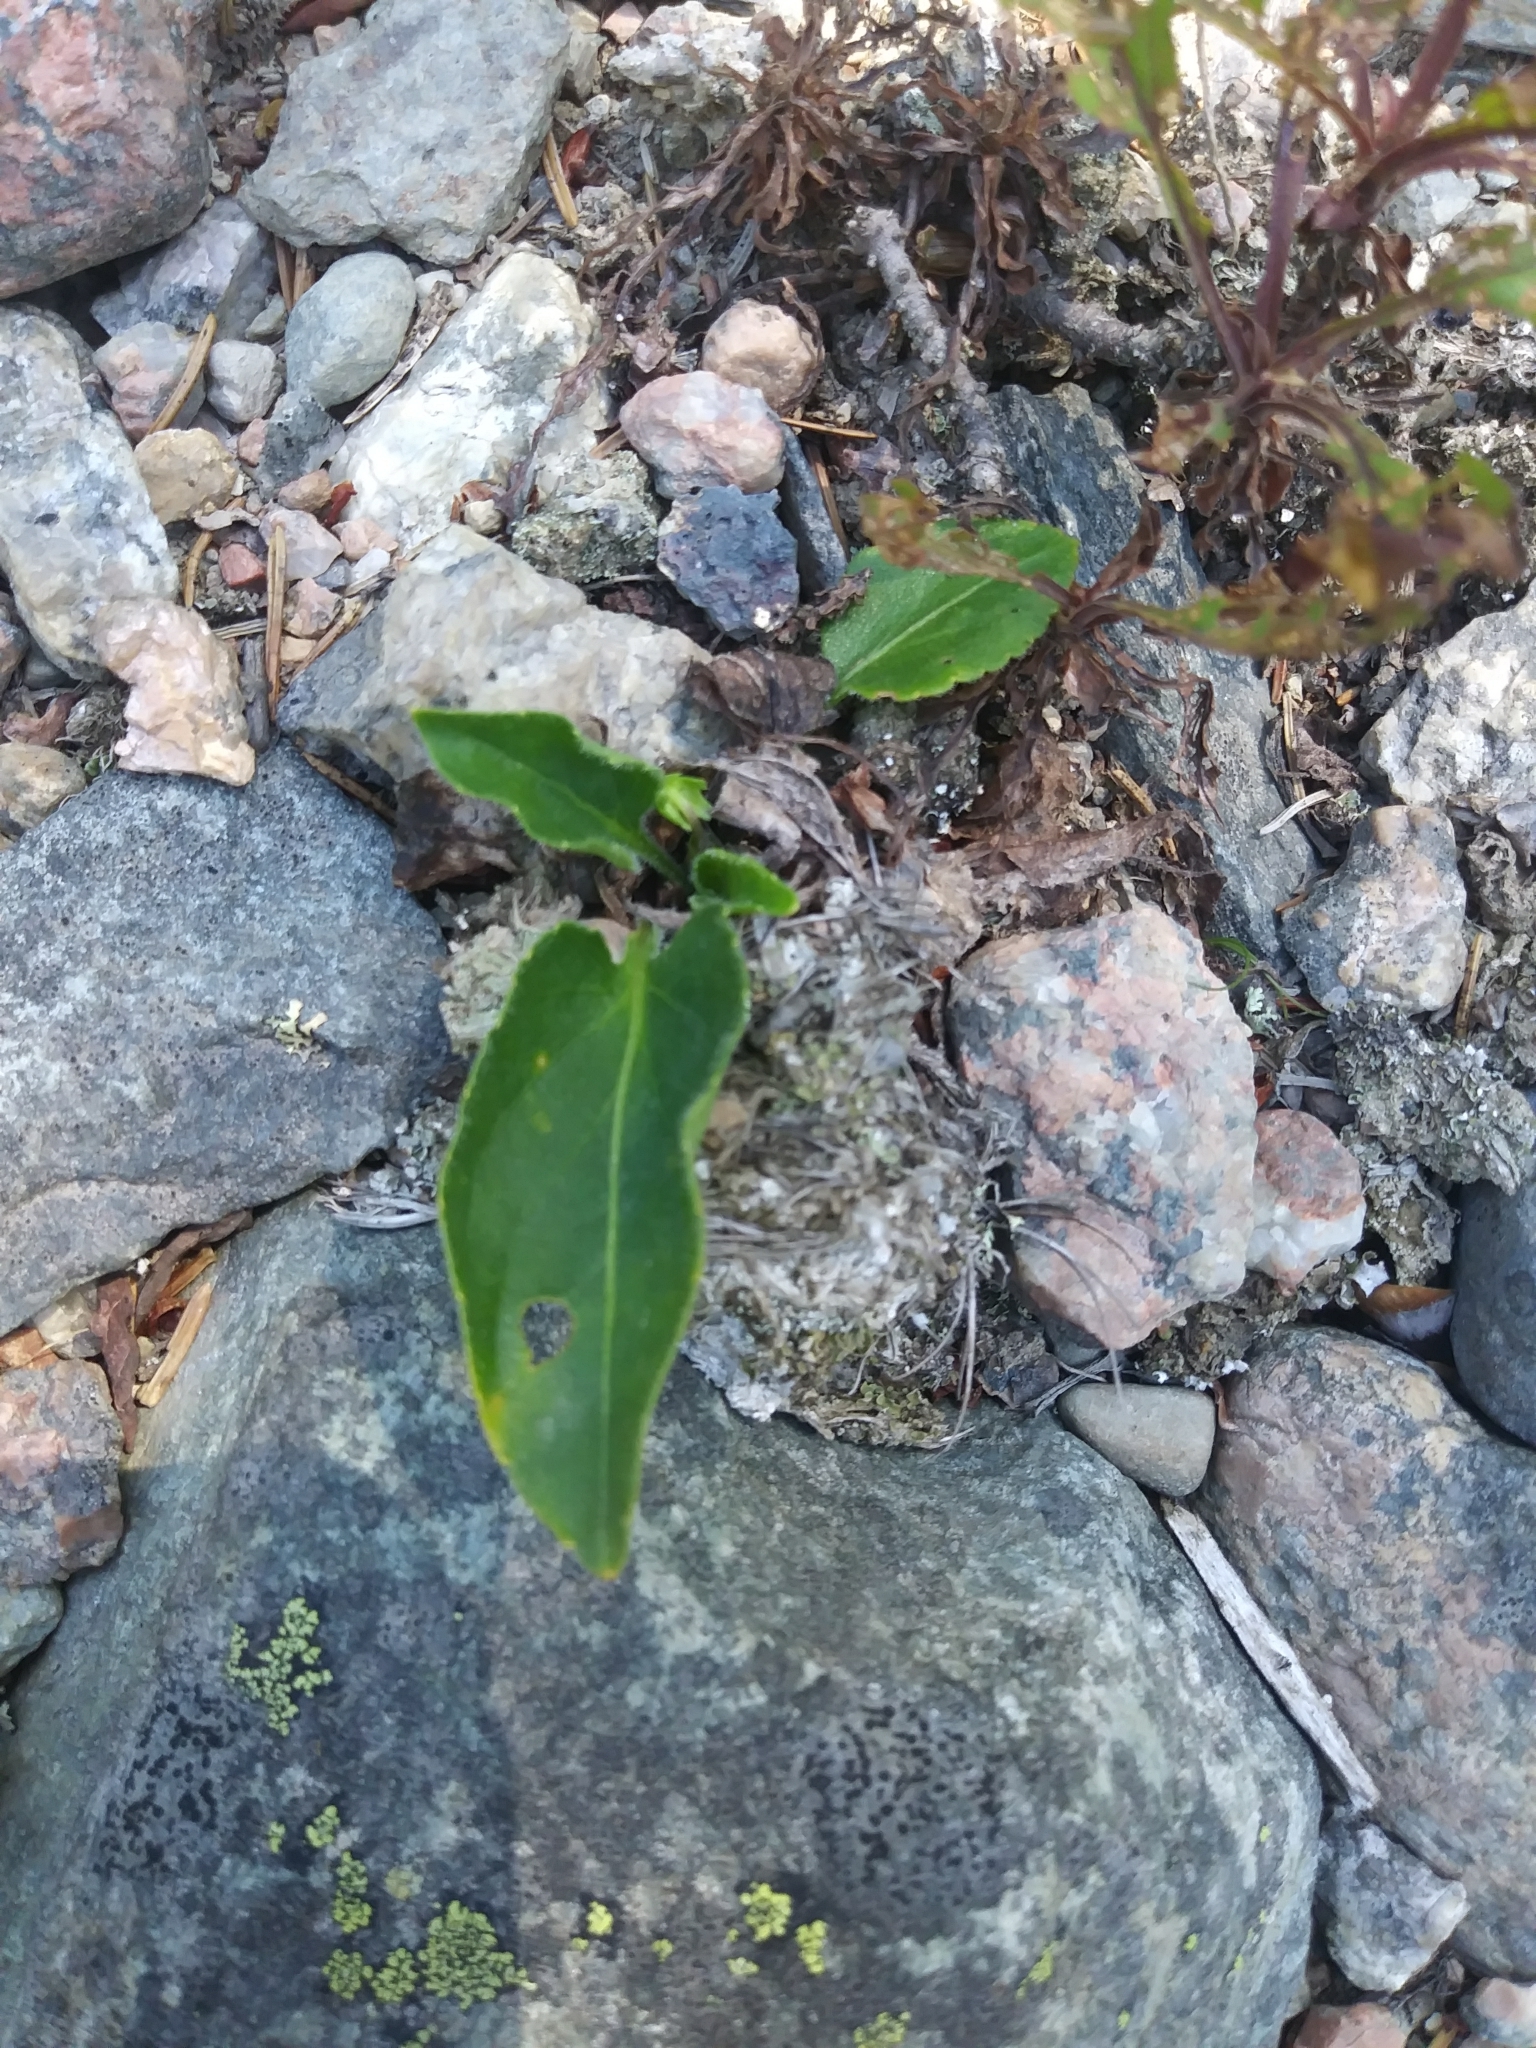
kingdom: Plantae
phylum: Tracheophyta
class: Magnoliopsida
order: Malpighiales
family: Violaceae
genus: Viola
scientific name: Viola fimbriatula
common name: Sand violet
